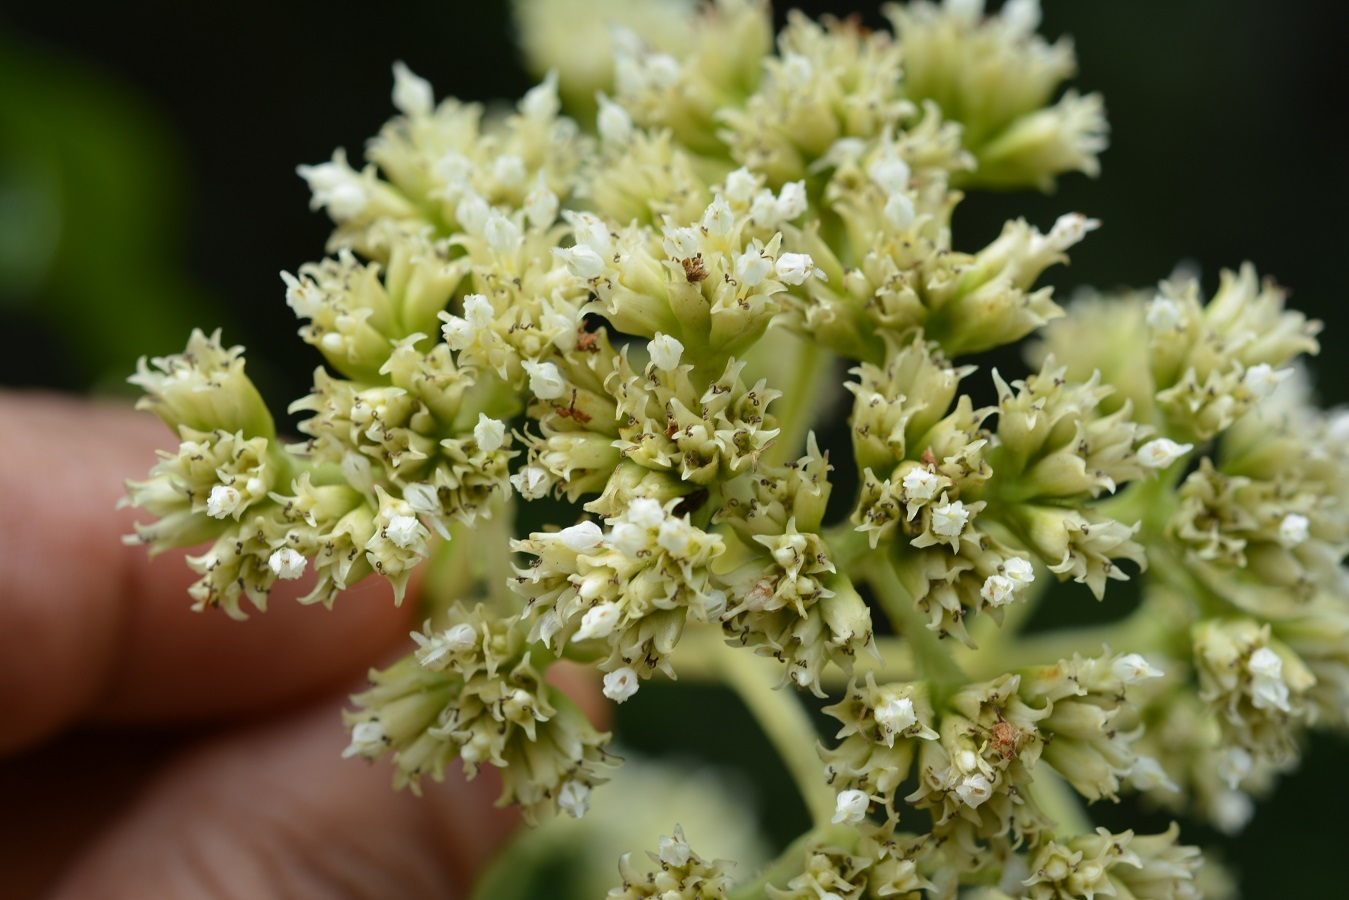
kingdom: Plantae
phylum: Tracheophyta
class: Magnoliopsida
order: Asterales
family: Asteraceae
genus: Desmanthodium
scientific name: Desmanthodium perfoliatum
